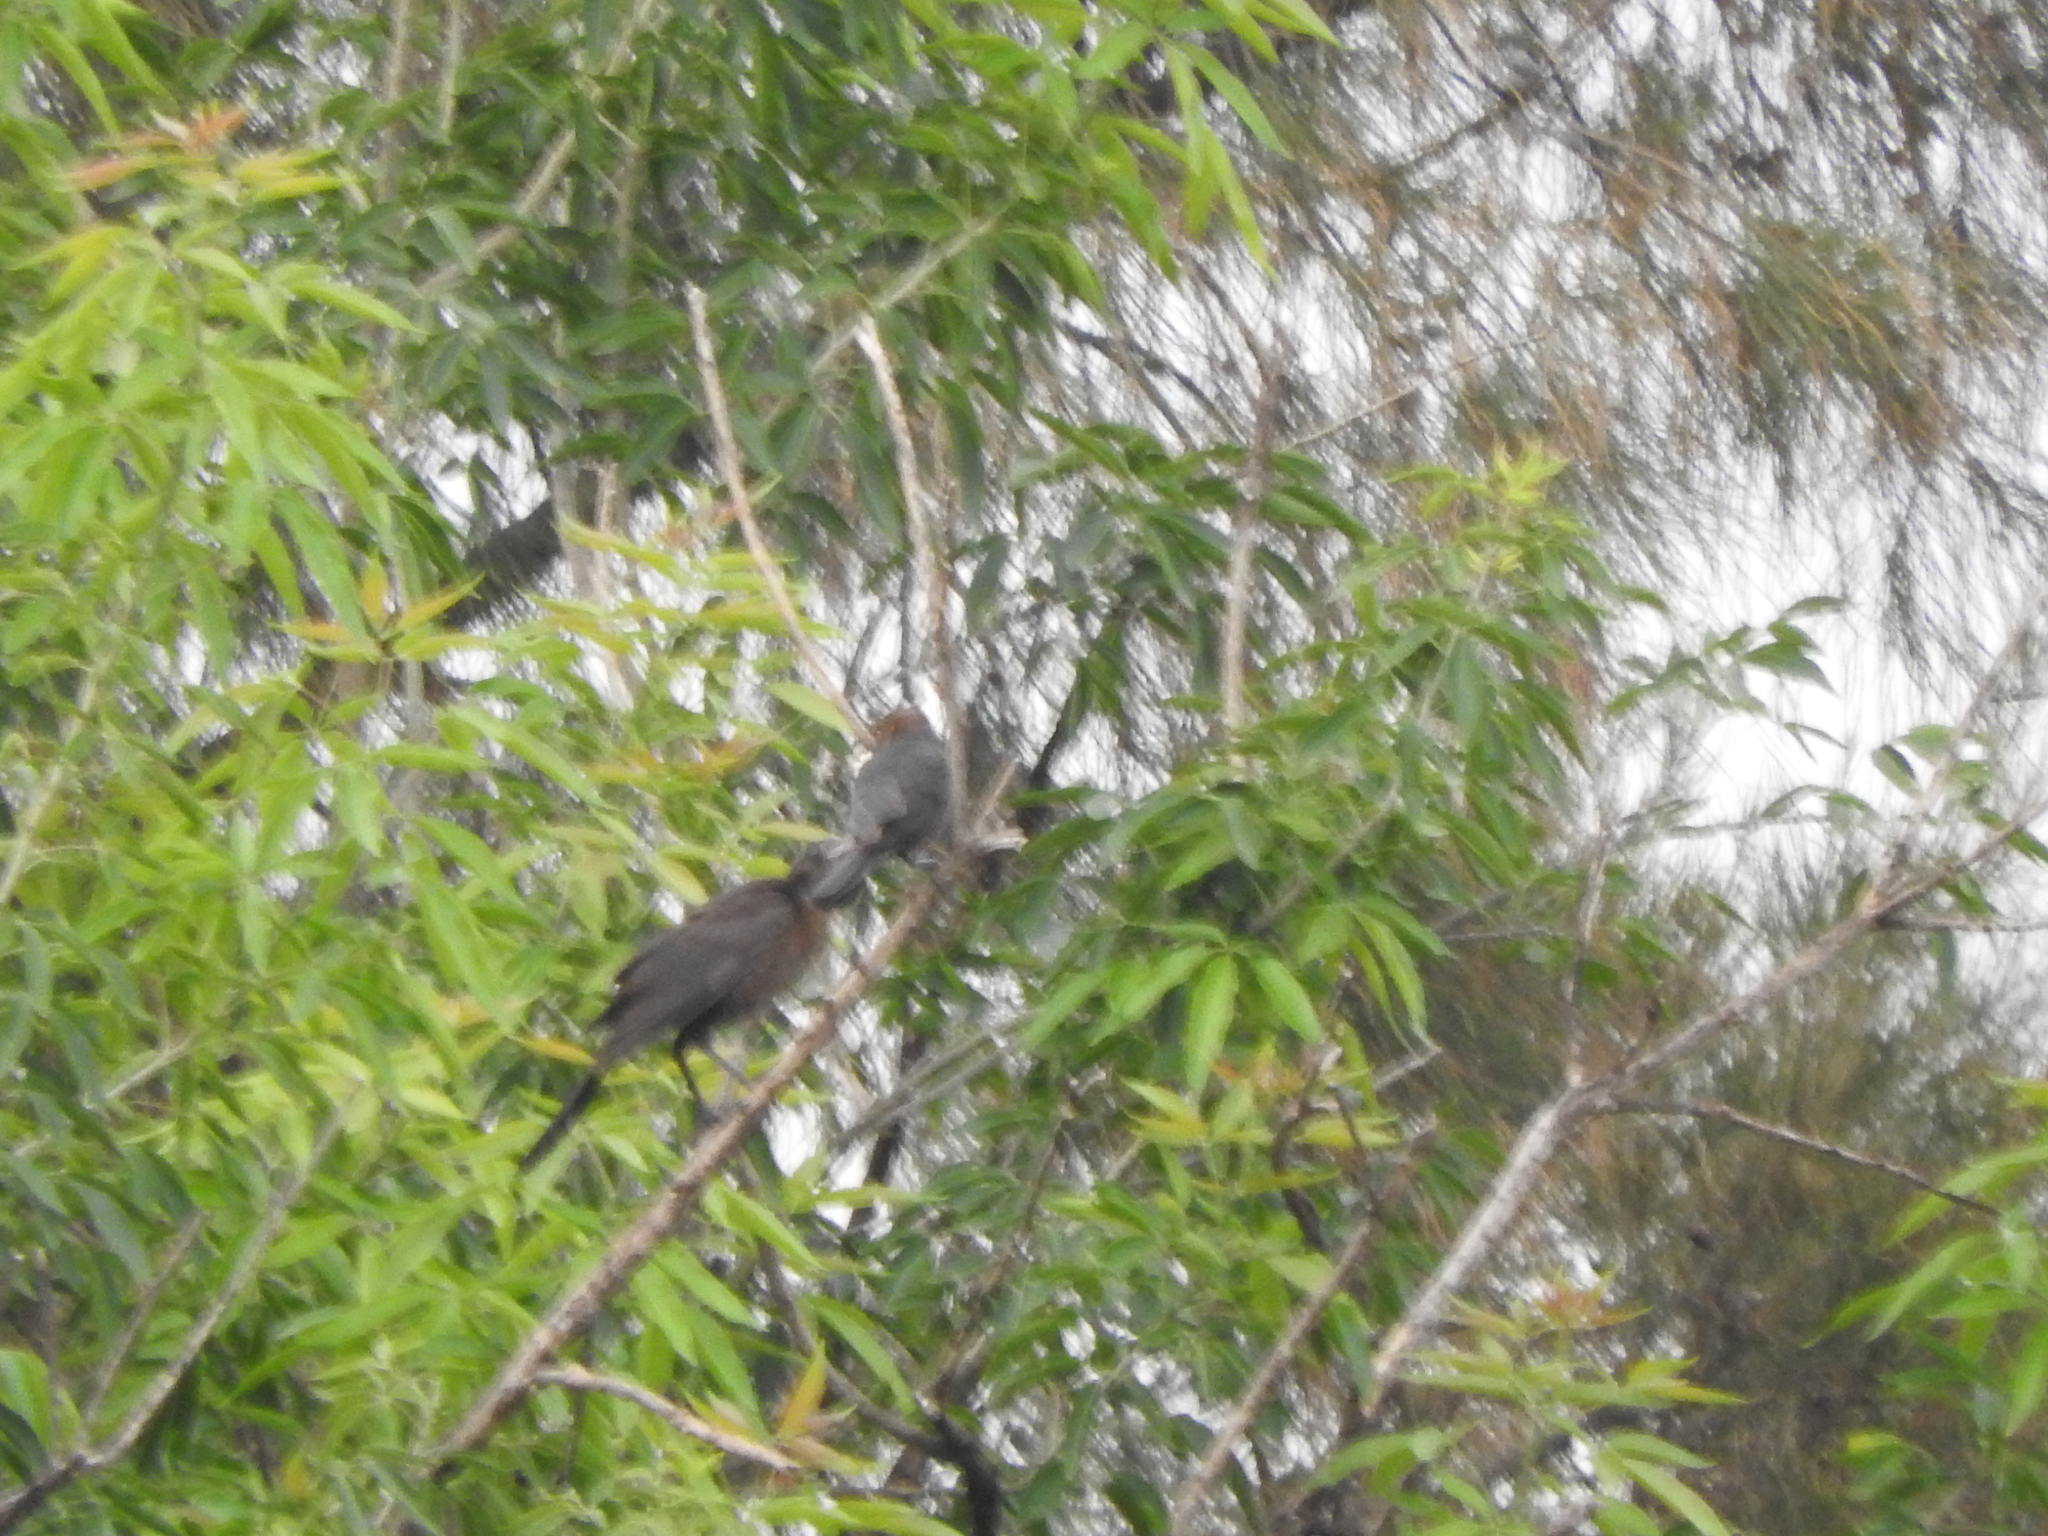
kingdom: Animalia
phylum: Chordata
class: Aves
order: Passeriformes
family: Icteridae
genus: Quiscalus
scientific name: Quiscalus mexicanus
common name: Great-tailed grackle
